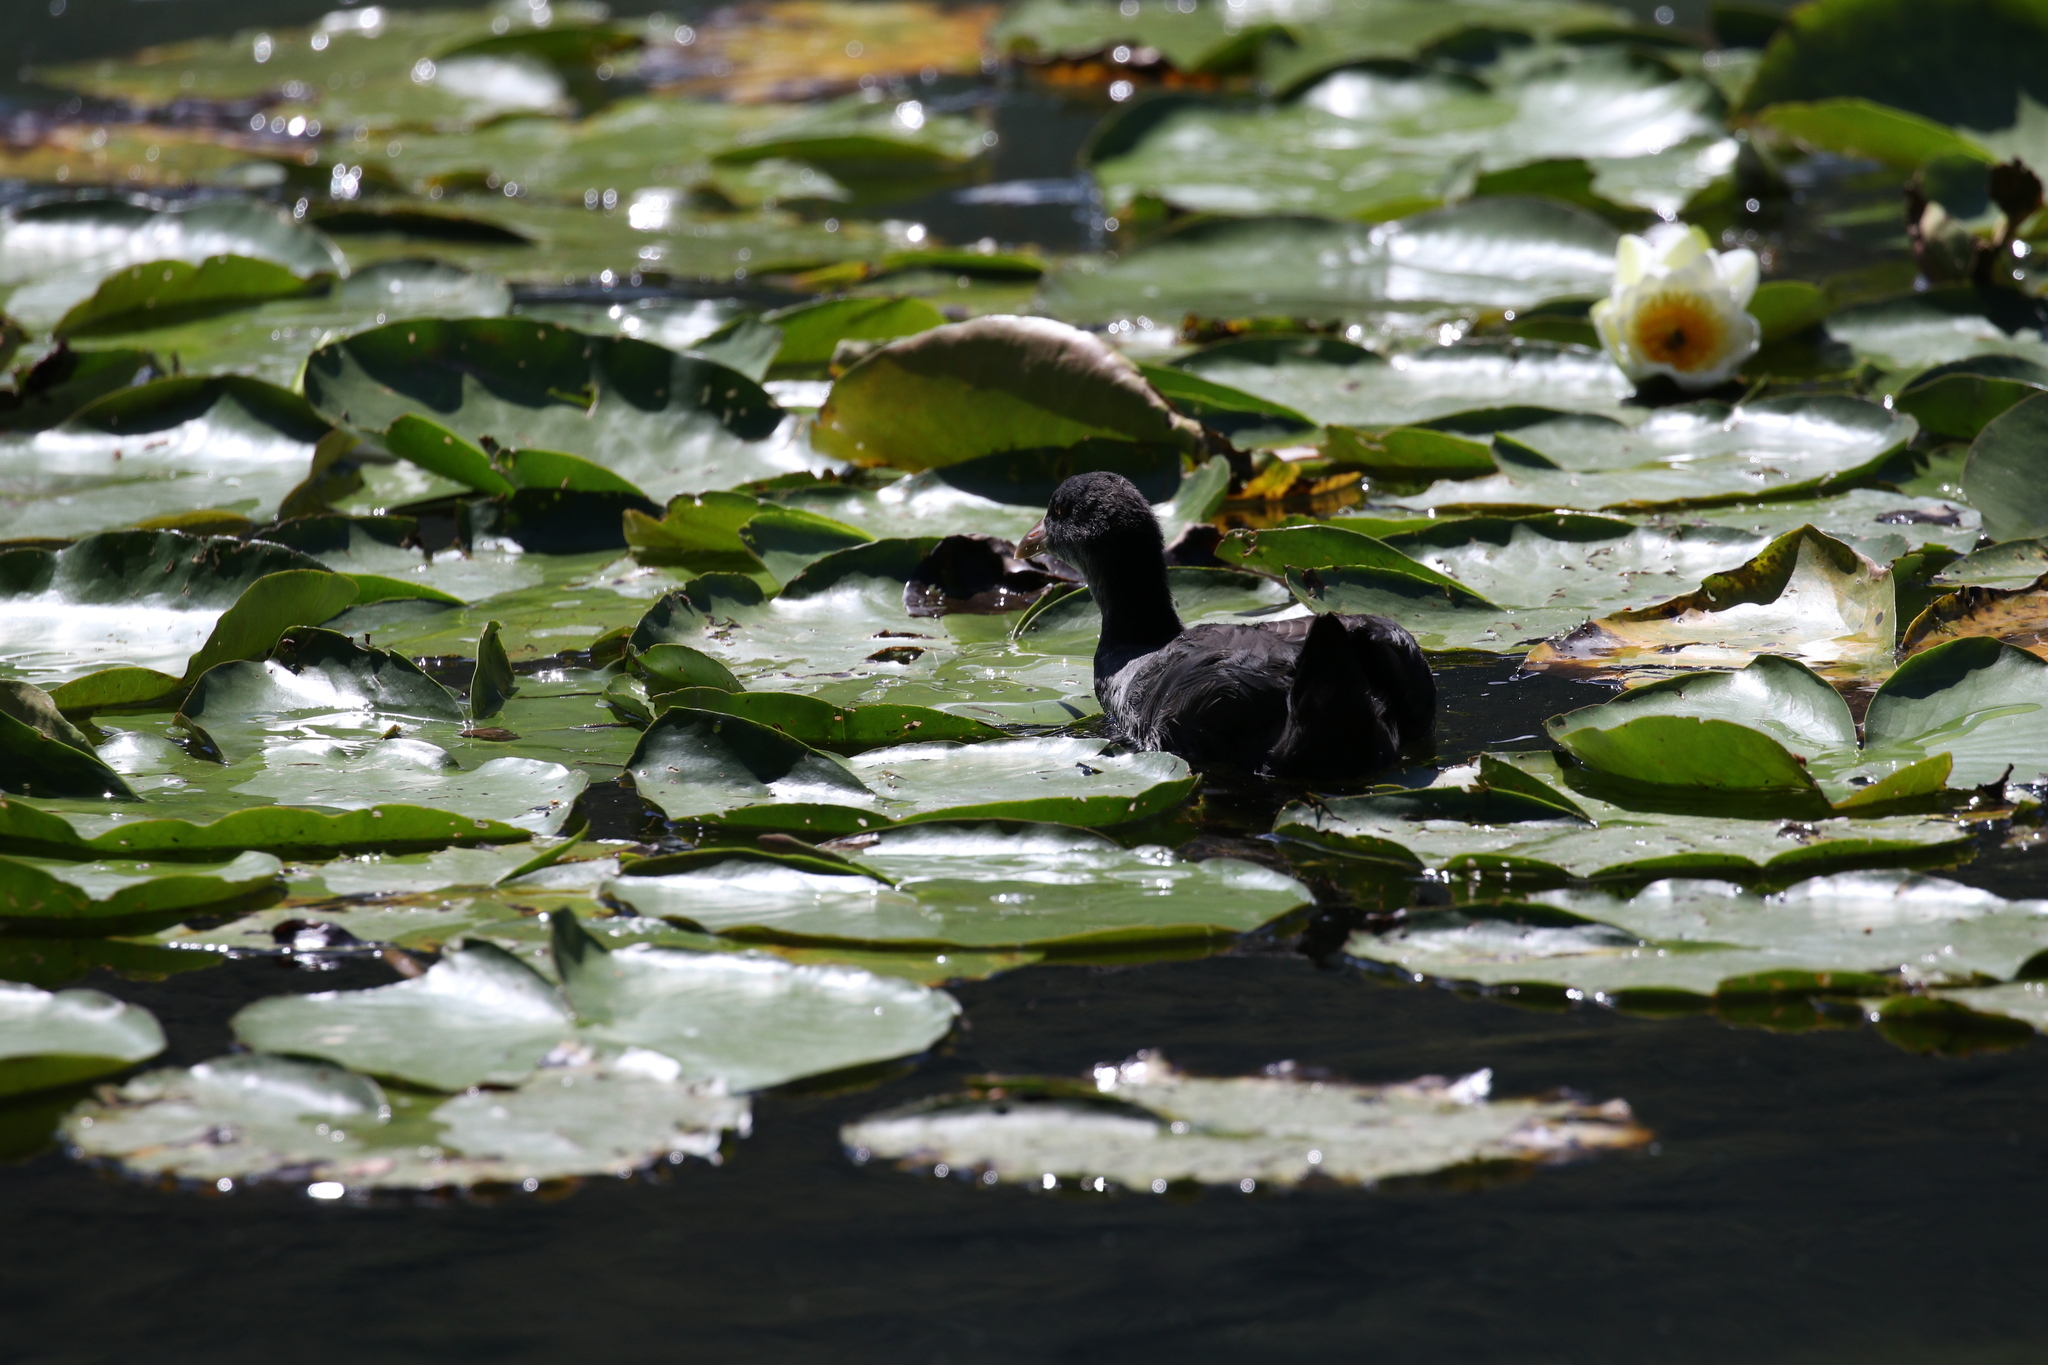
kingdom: Animalia
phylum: Chordata
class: Aves
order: Gruiformes
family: Rallidae
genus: Fulica
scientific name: Fulica atra
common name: Eurasian coot
